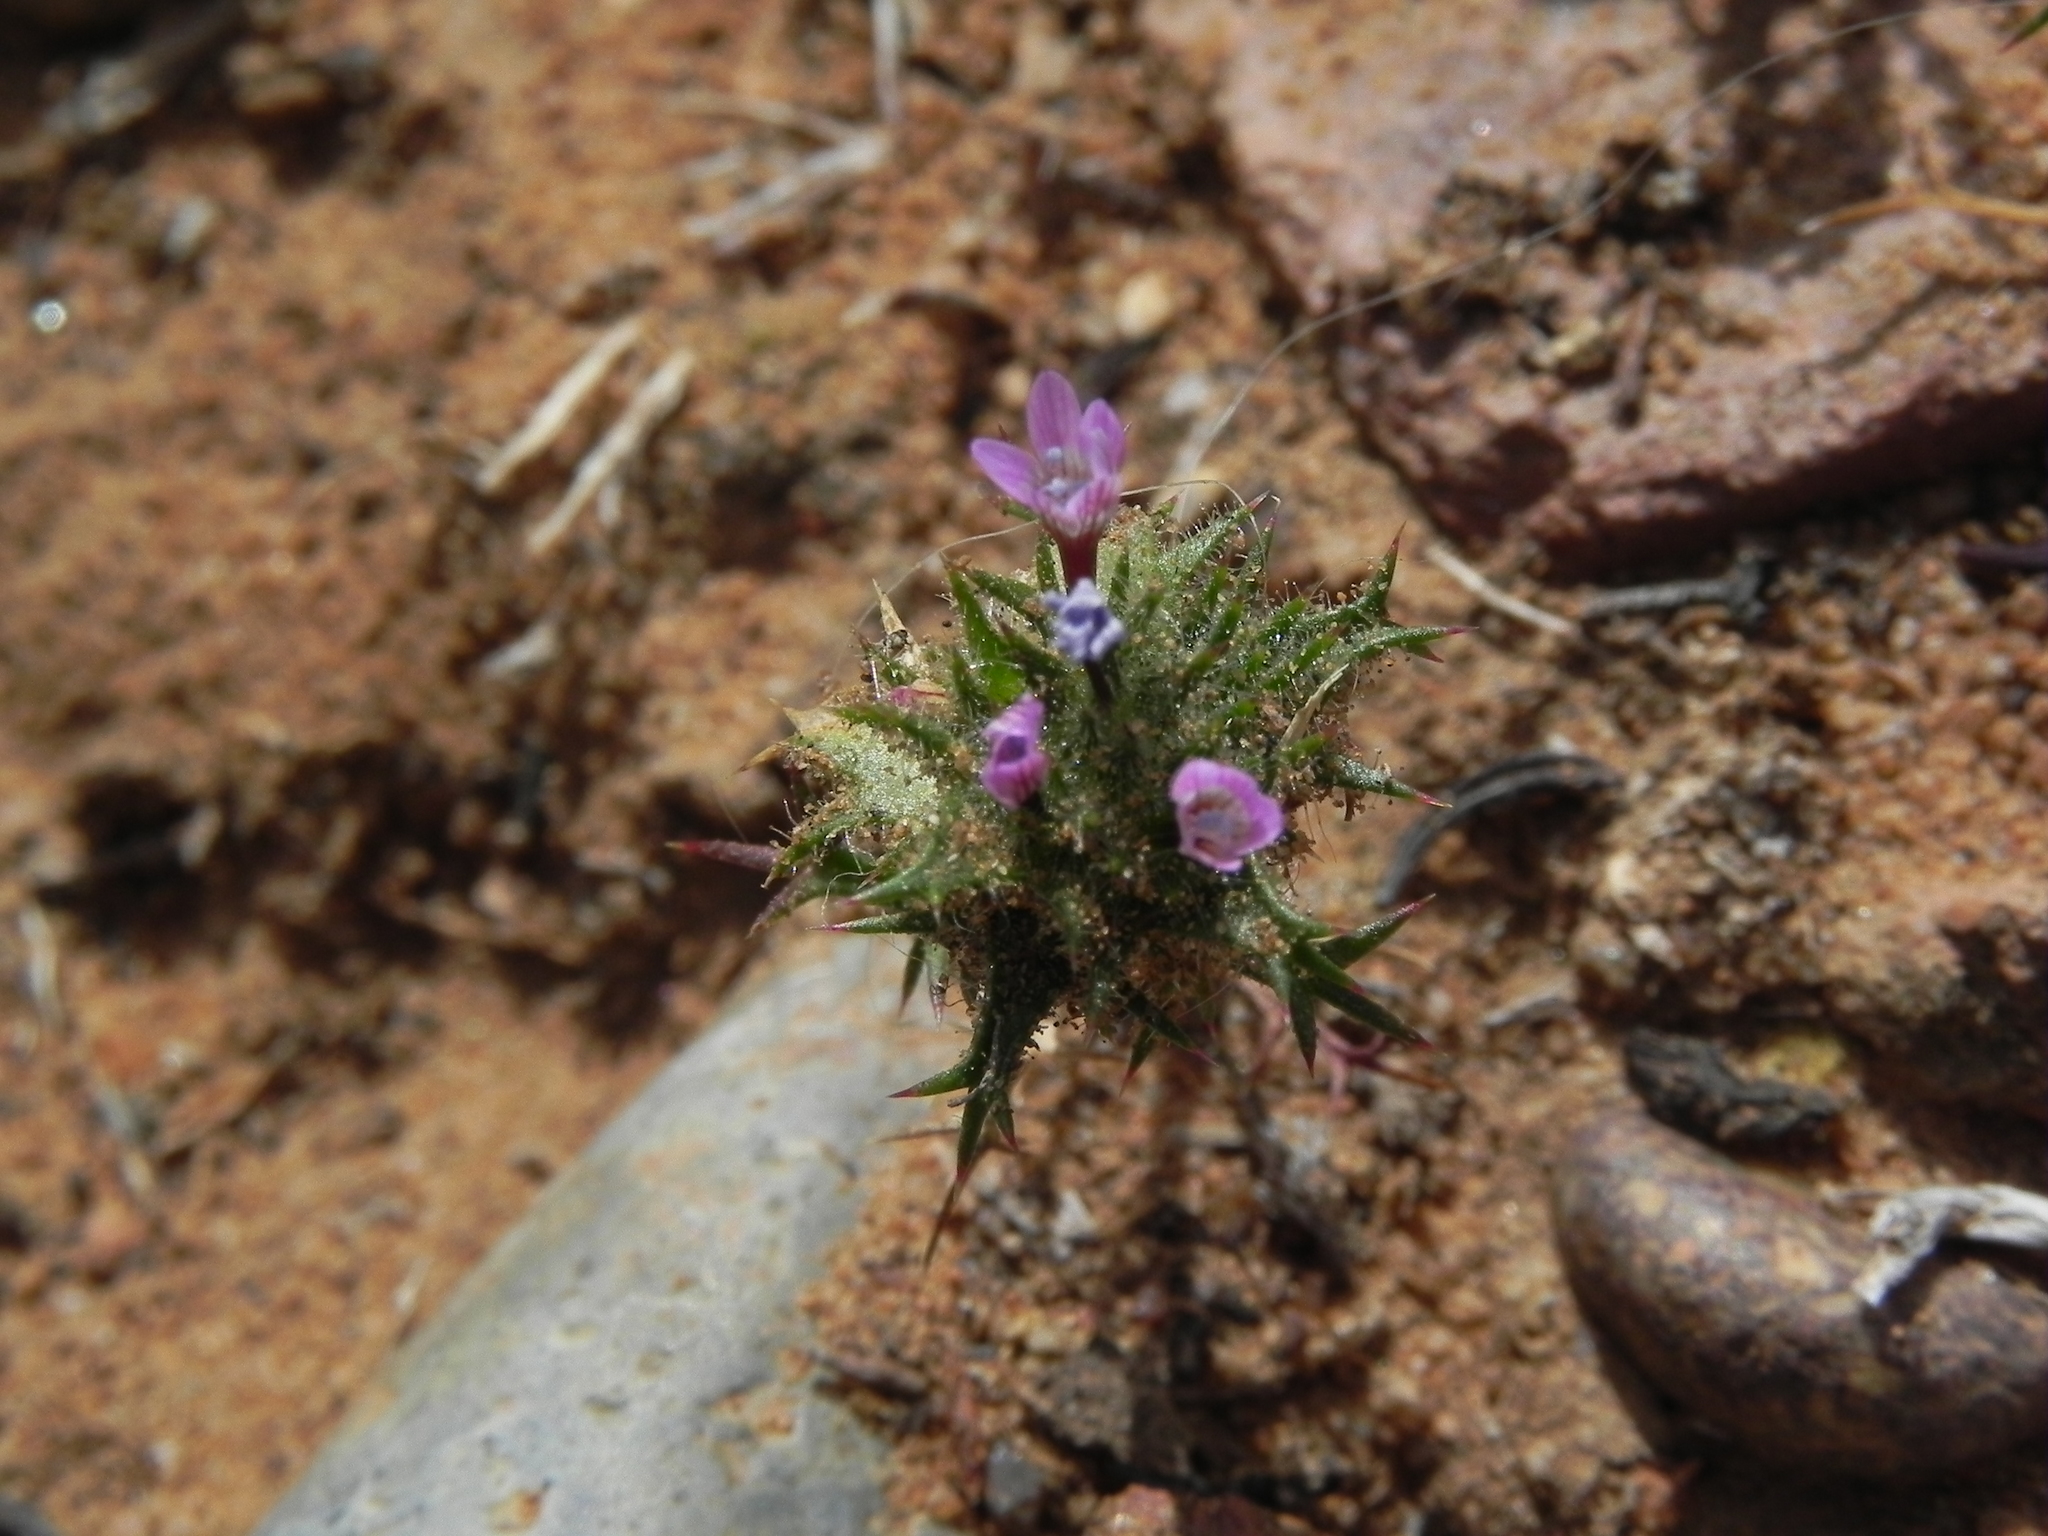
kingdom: Plantae
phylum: Tracheophyta
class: Magnoliopsida
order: Ericales
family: Polemoniaceae
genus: Navarretia
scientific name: Navarretia hamata
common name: Hooked navarretia
